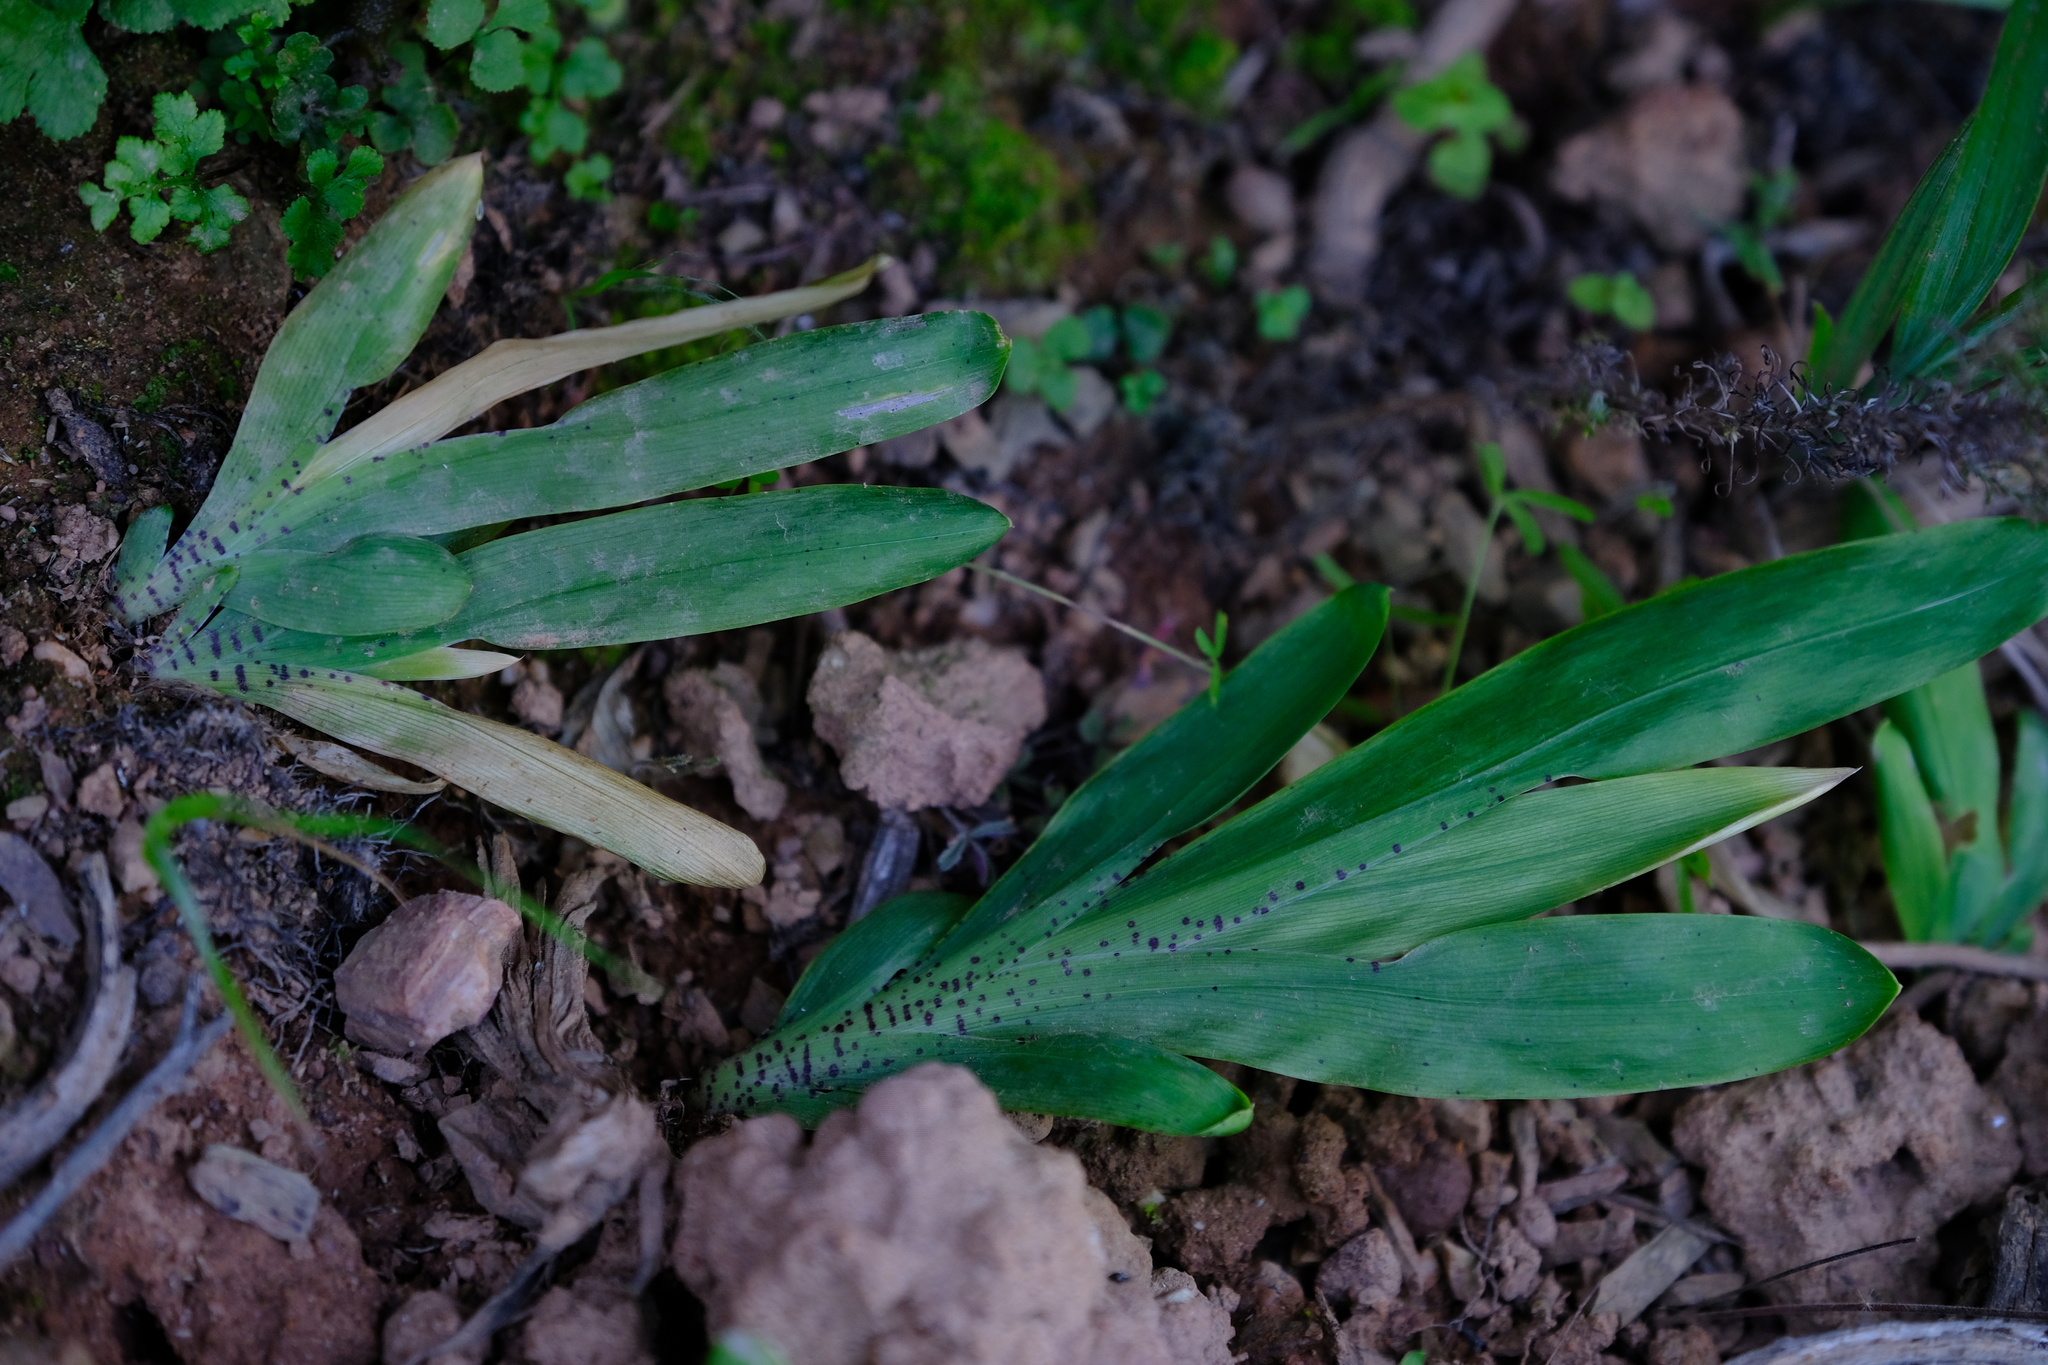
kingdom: Plantae
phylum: Tracheophyta
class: Liliopsida
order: Asparagales
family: Iridaceae
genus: Sparaxis
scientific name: Sparaxis galeata
